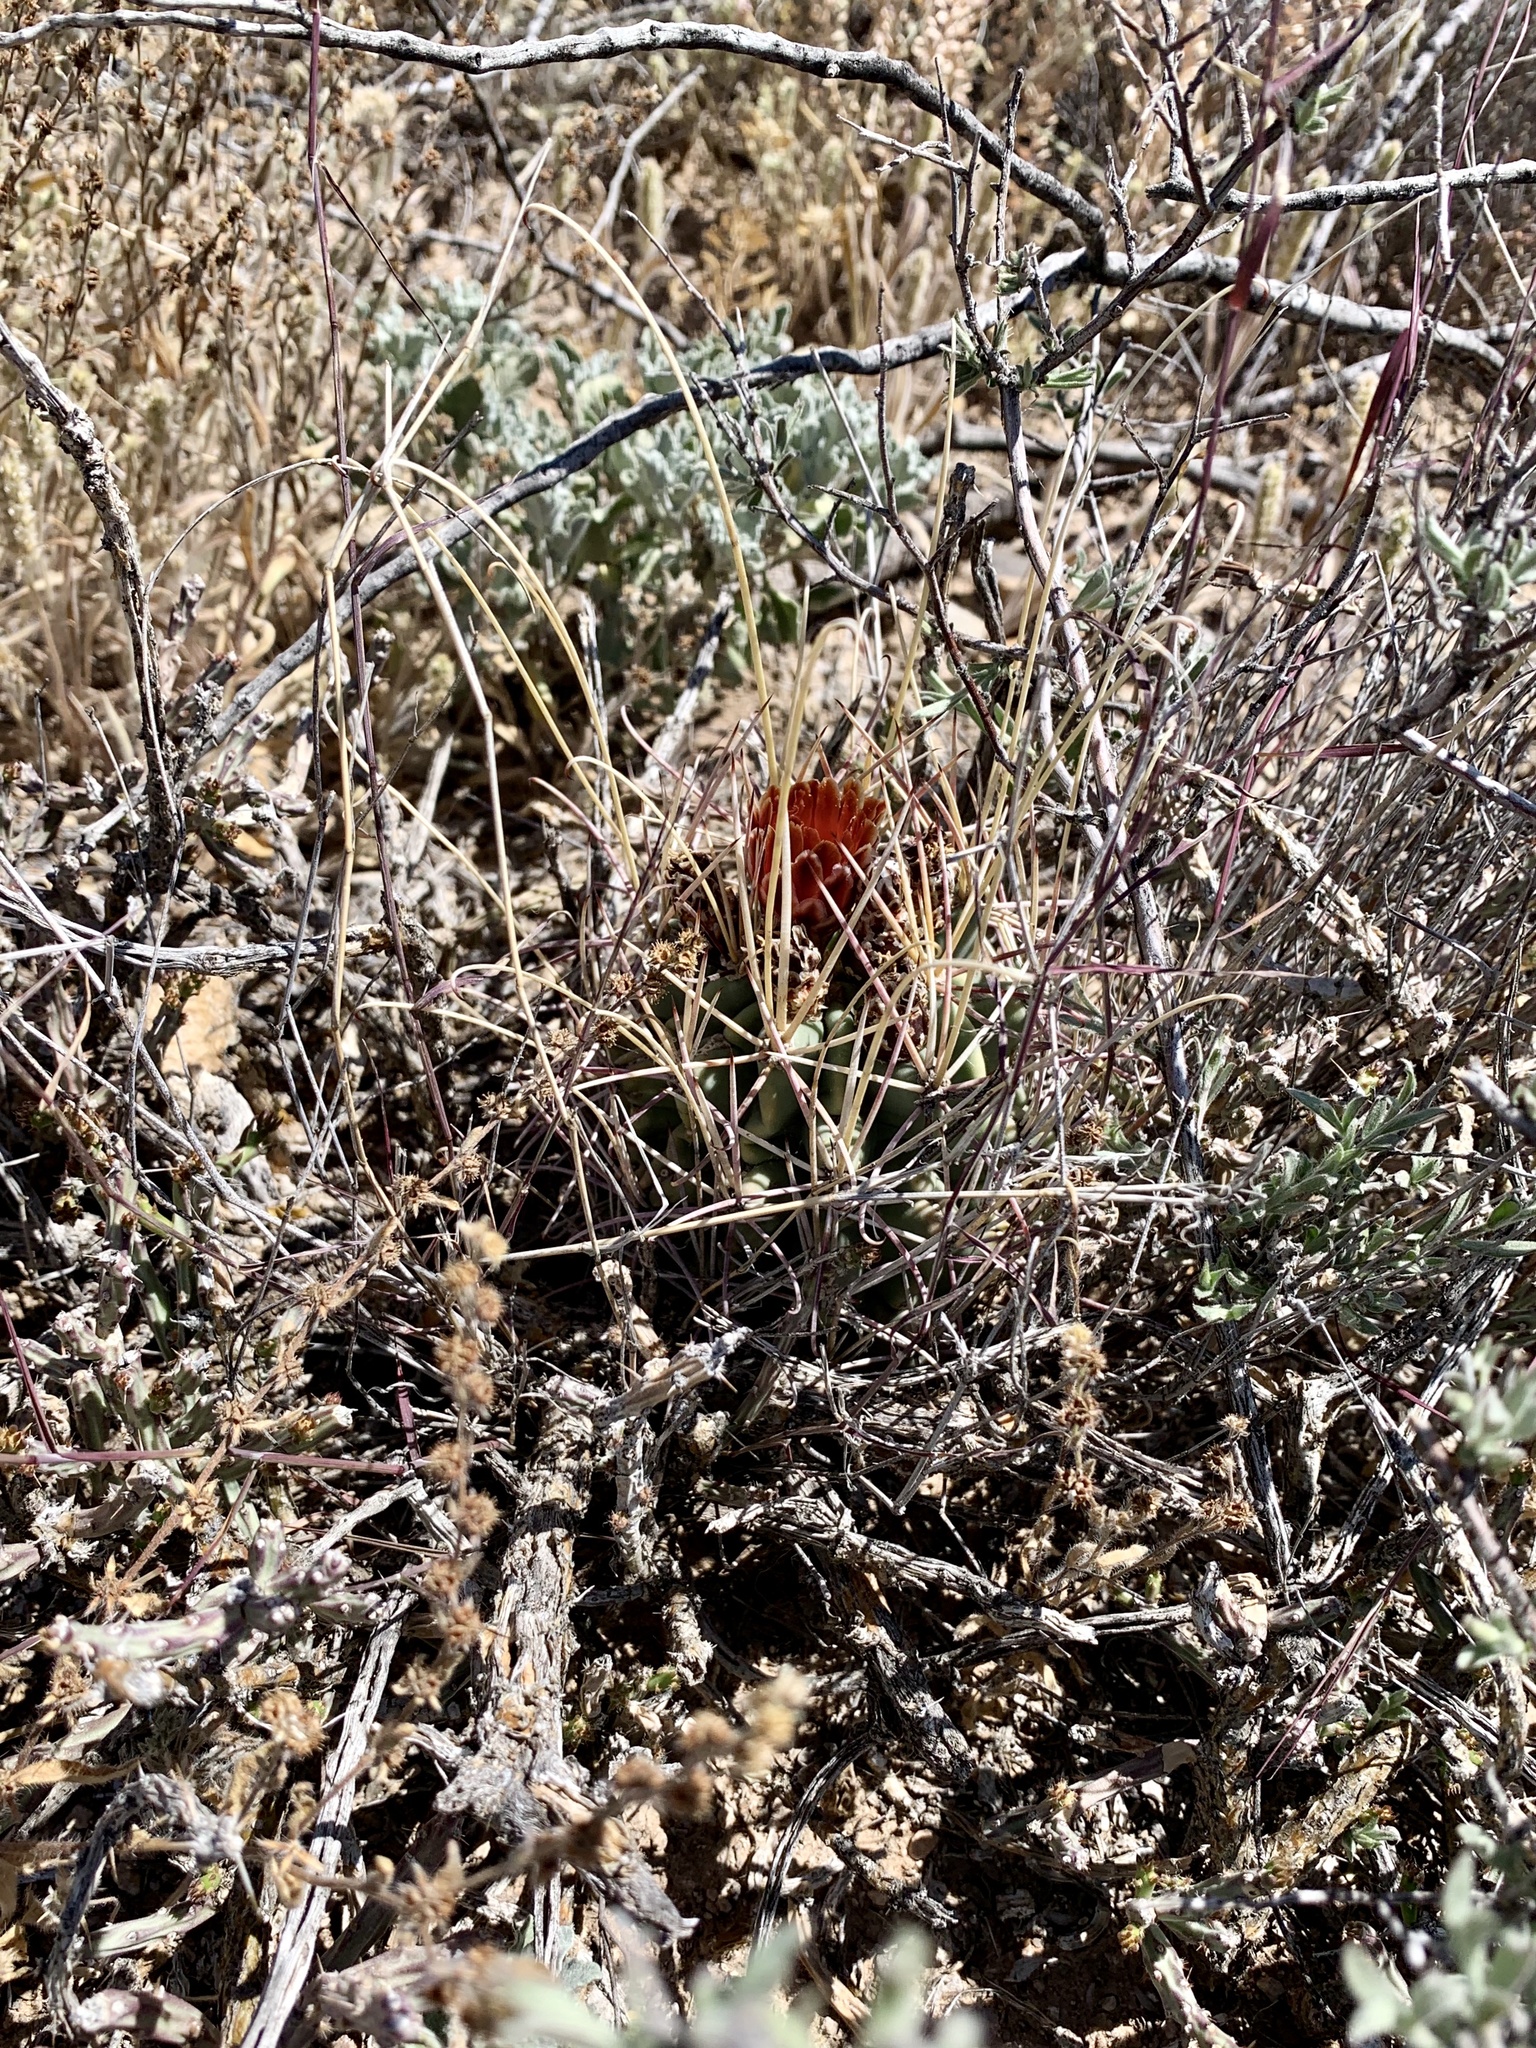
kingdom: Plantae
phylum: Tracheophyta
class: Magnoliopsida
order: Caryophyllales
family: Cactaceae
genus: Ferocactus
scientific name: Ferocactus uncinatus
